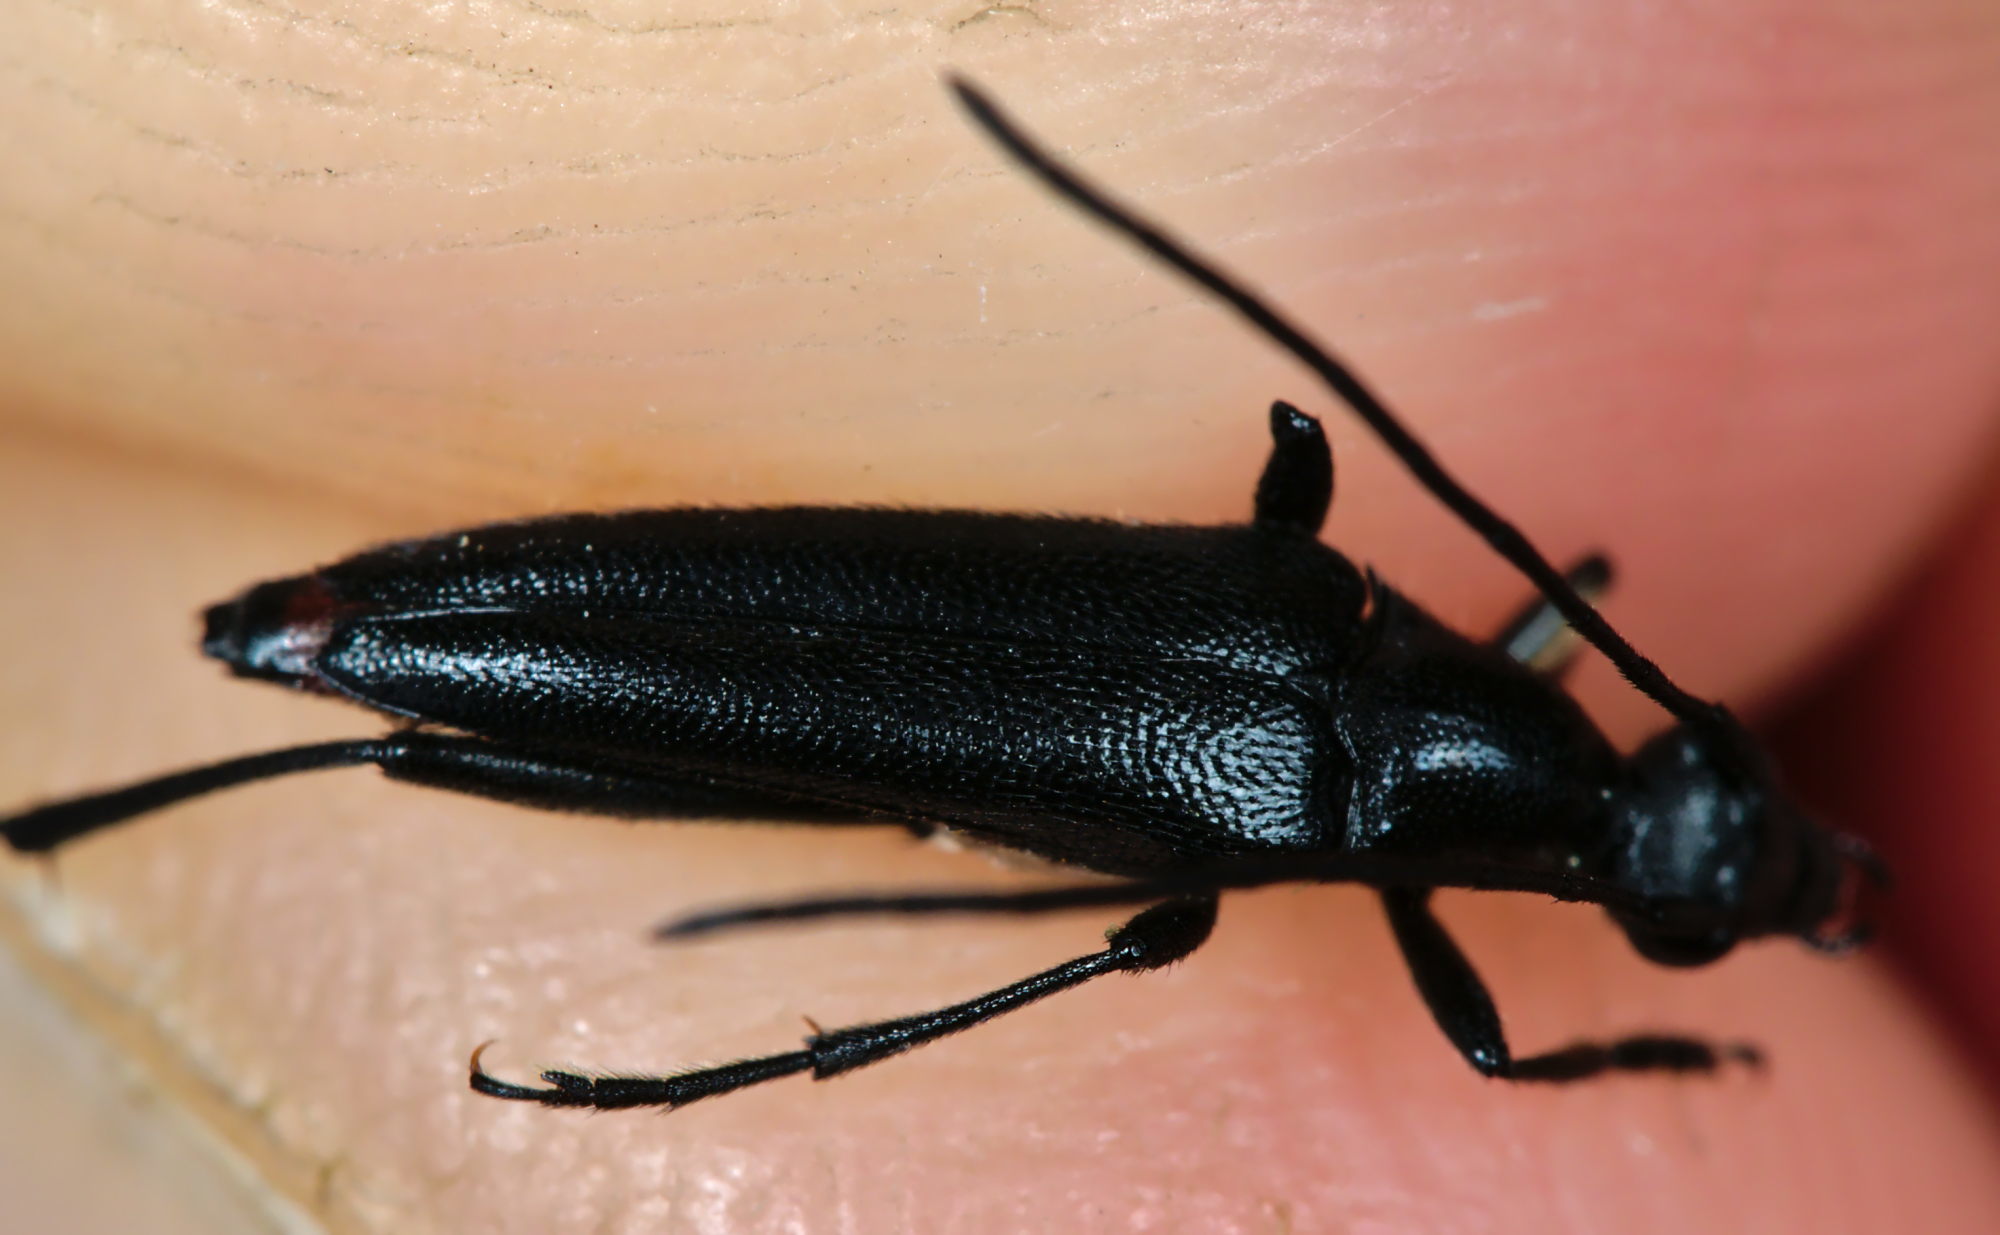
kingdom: Animalia
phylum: Arthropoda
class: Insecta
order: Coleoptera
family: Cerambycidae
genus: Stenurella
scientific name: Stenurella nigra
